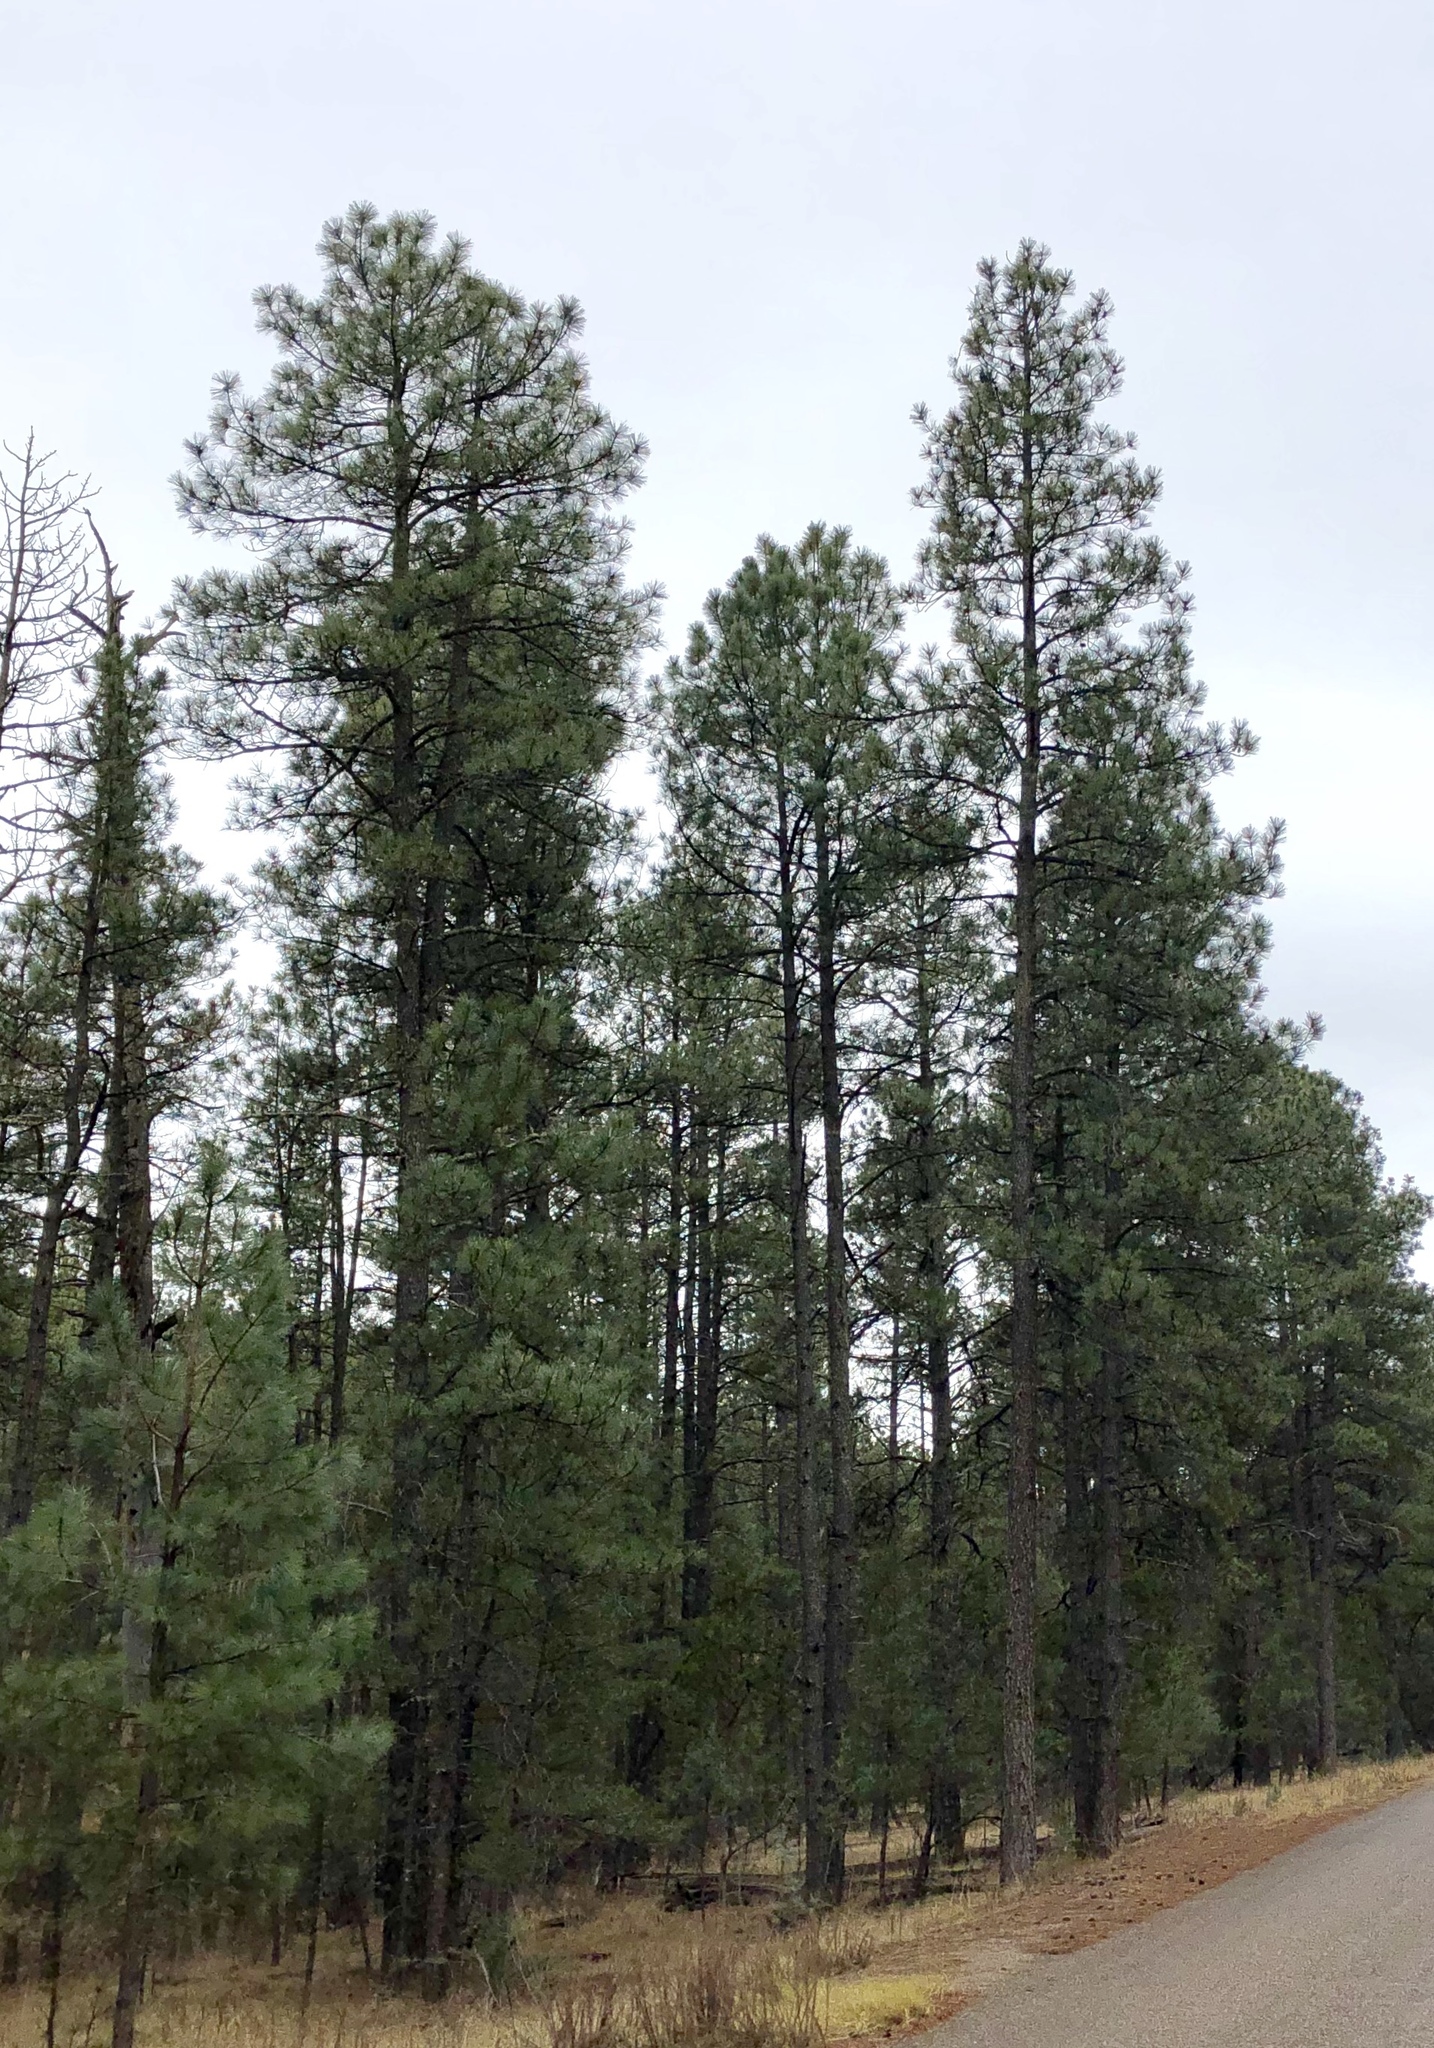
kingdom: Plantae
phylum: Tracheophyta
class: Pinopsida
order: Pinales
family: Pinaceae
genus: Pinus
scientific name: Pinus ponderosa
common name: Western yellow-pine
